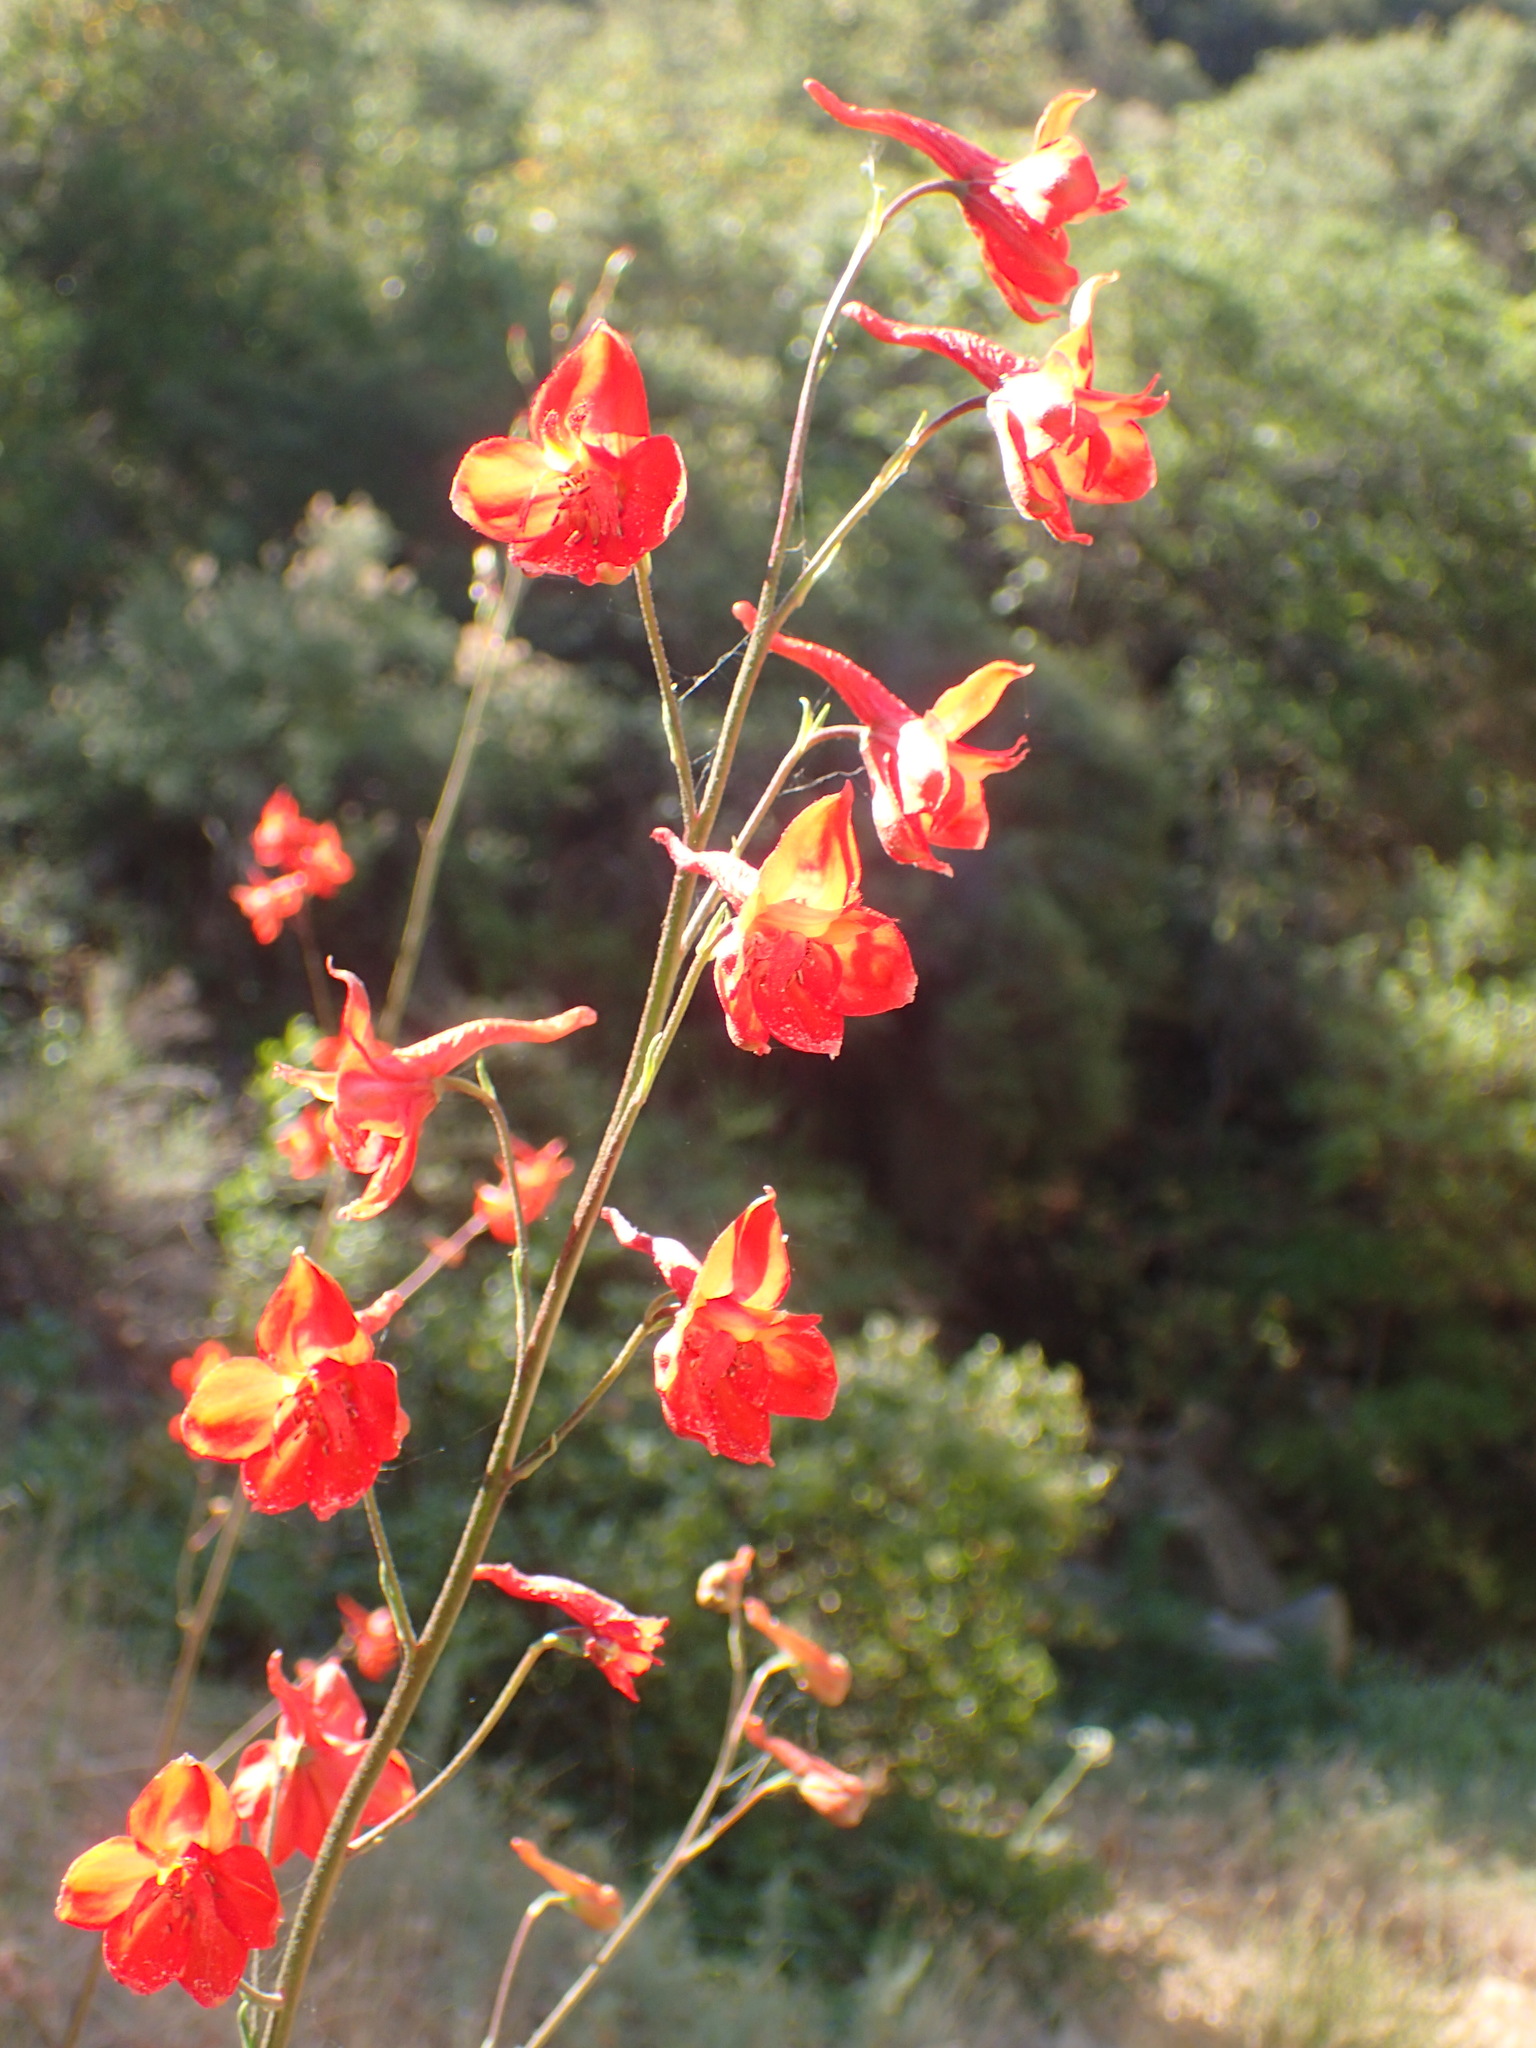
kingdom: Plantae
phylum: Tracheophyta
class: Magnoliopsida
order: Ranunculales
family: Ranunculaceae
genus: Delphinium
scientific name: Delphinium cardinale
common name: Scarlet larkspur
